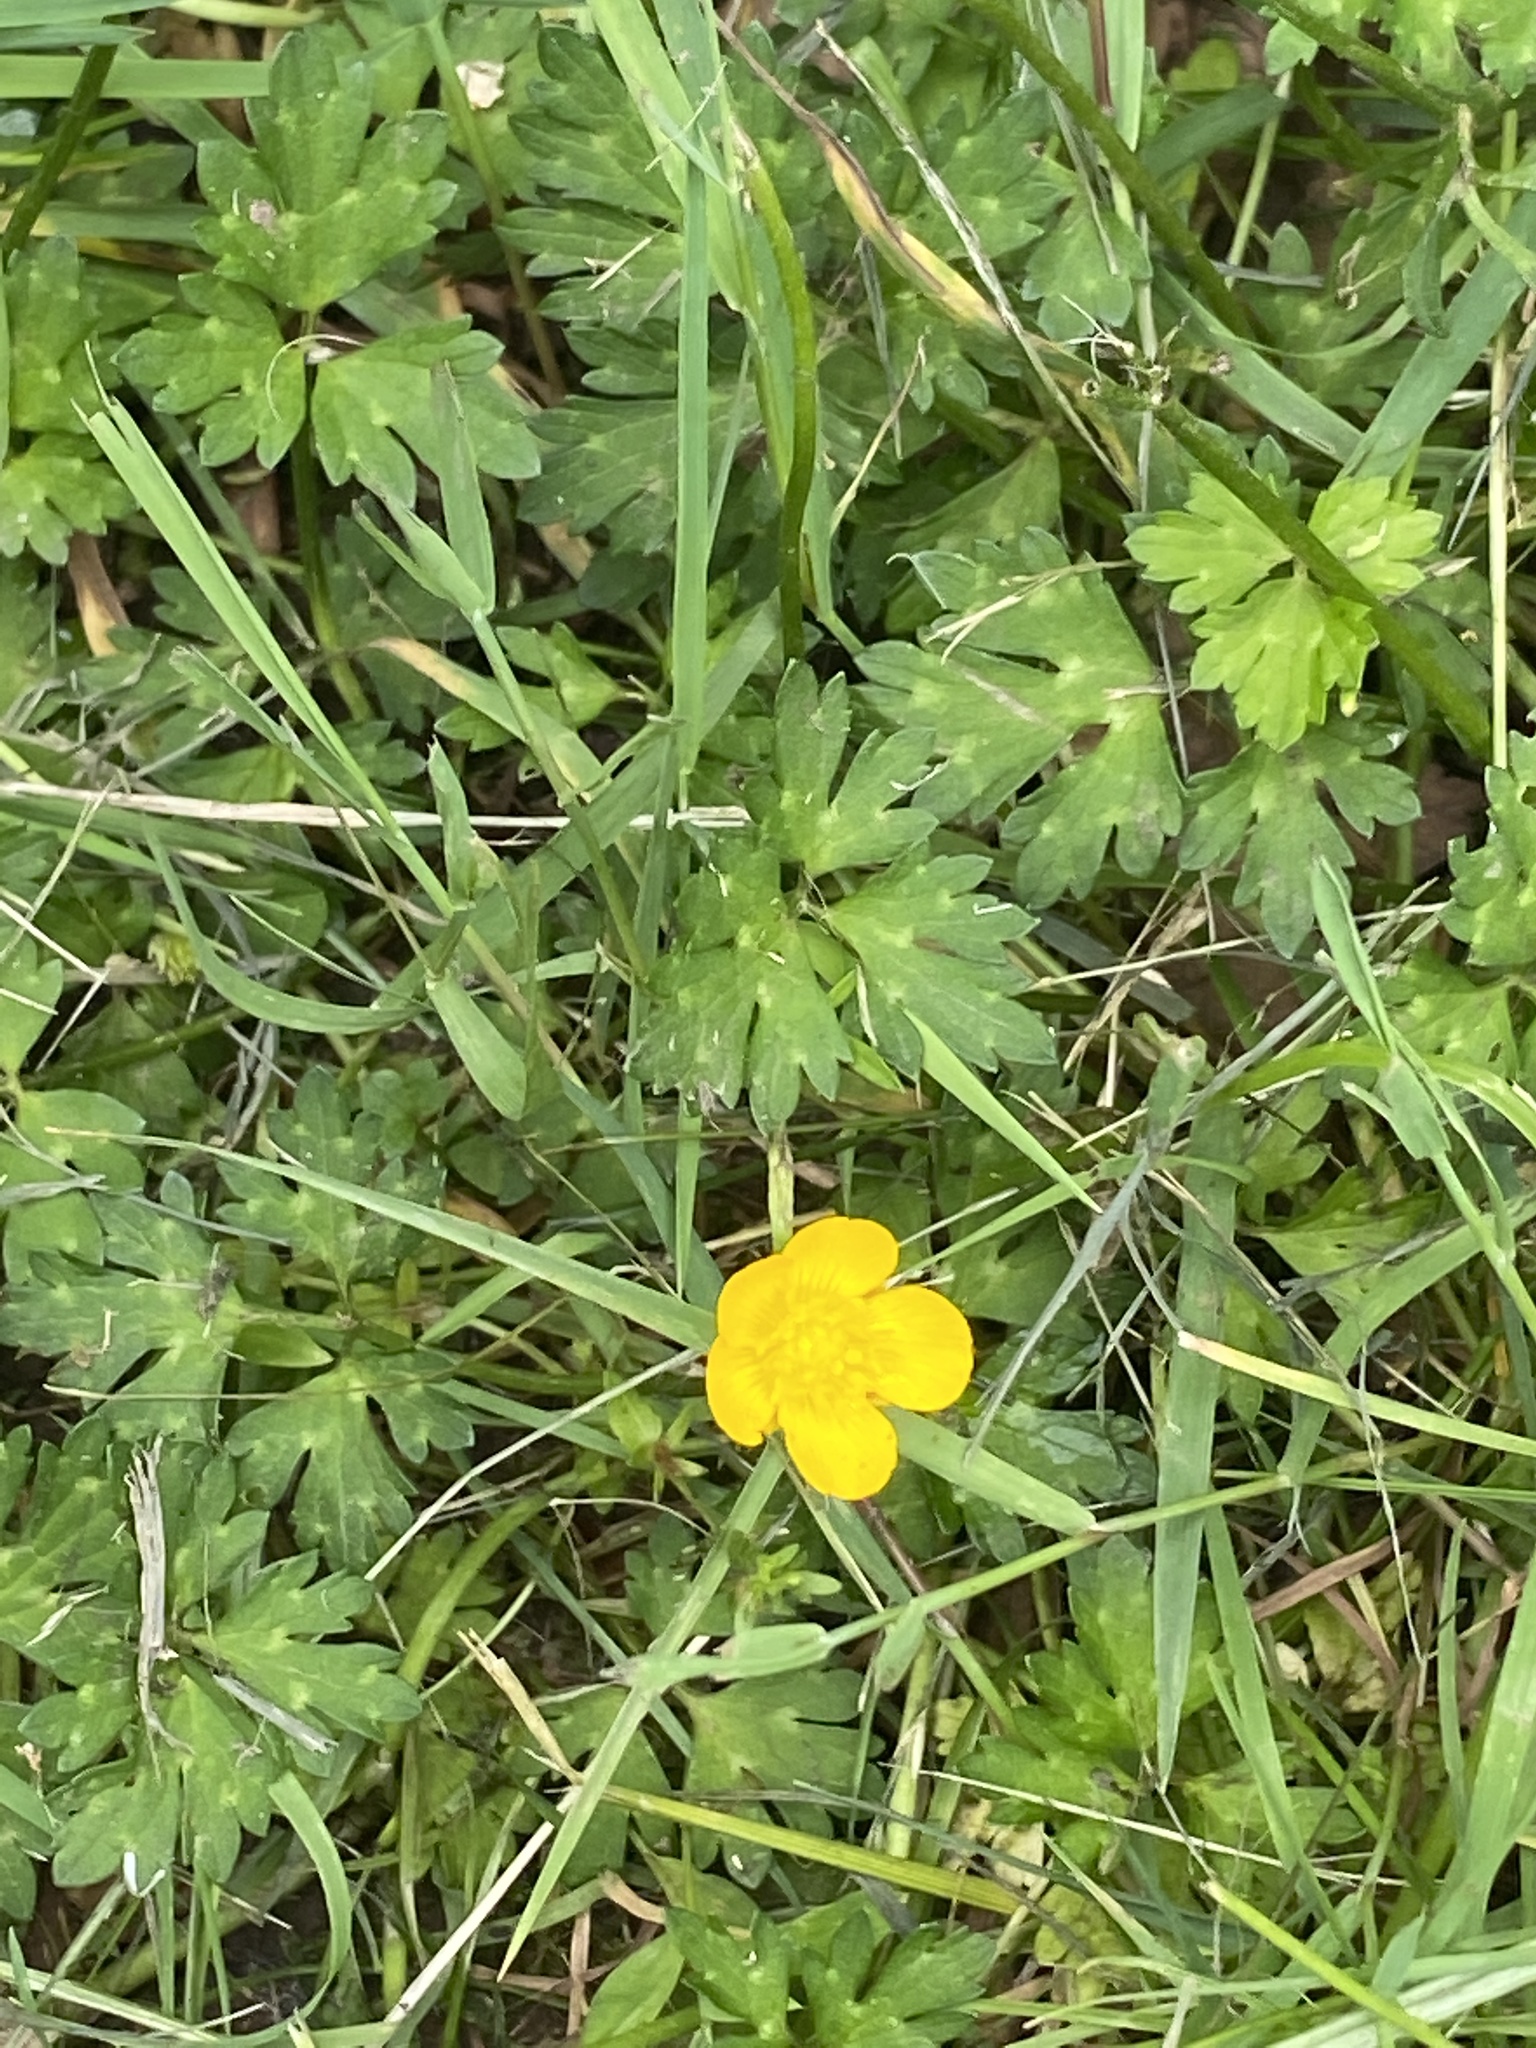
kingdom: Plantae
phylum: Tracheophyta
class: Magnoliopsida
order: Ranunculales
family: Ranunculaceae
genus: Ranunculus
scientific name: Ranunculus repens
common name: Creeping buttercup
